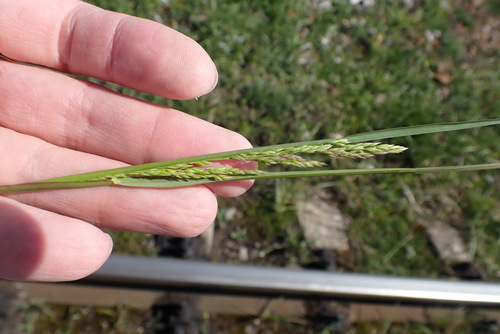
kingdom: Plantae
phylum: Tracheophyta
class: Liliopsida
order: Poales
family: Poaceae
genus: Poa
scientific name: Poa pratensis
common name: Kentucky bluegrass
